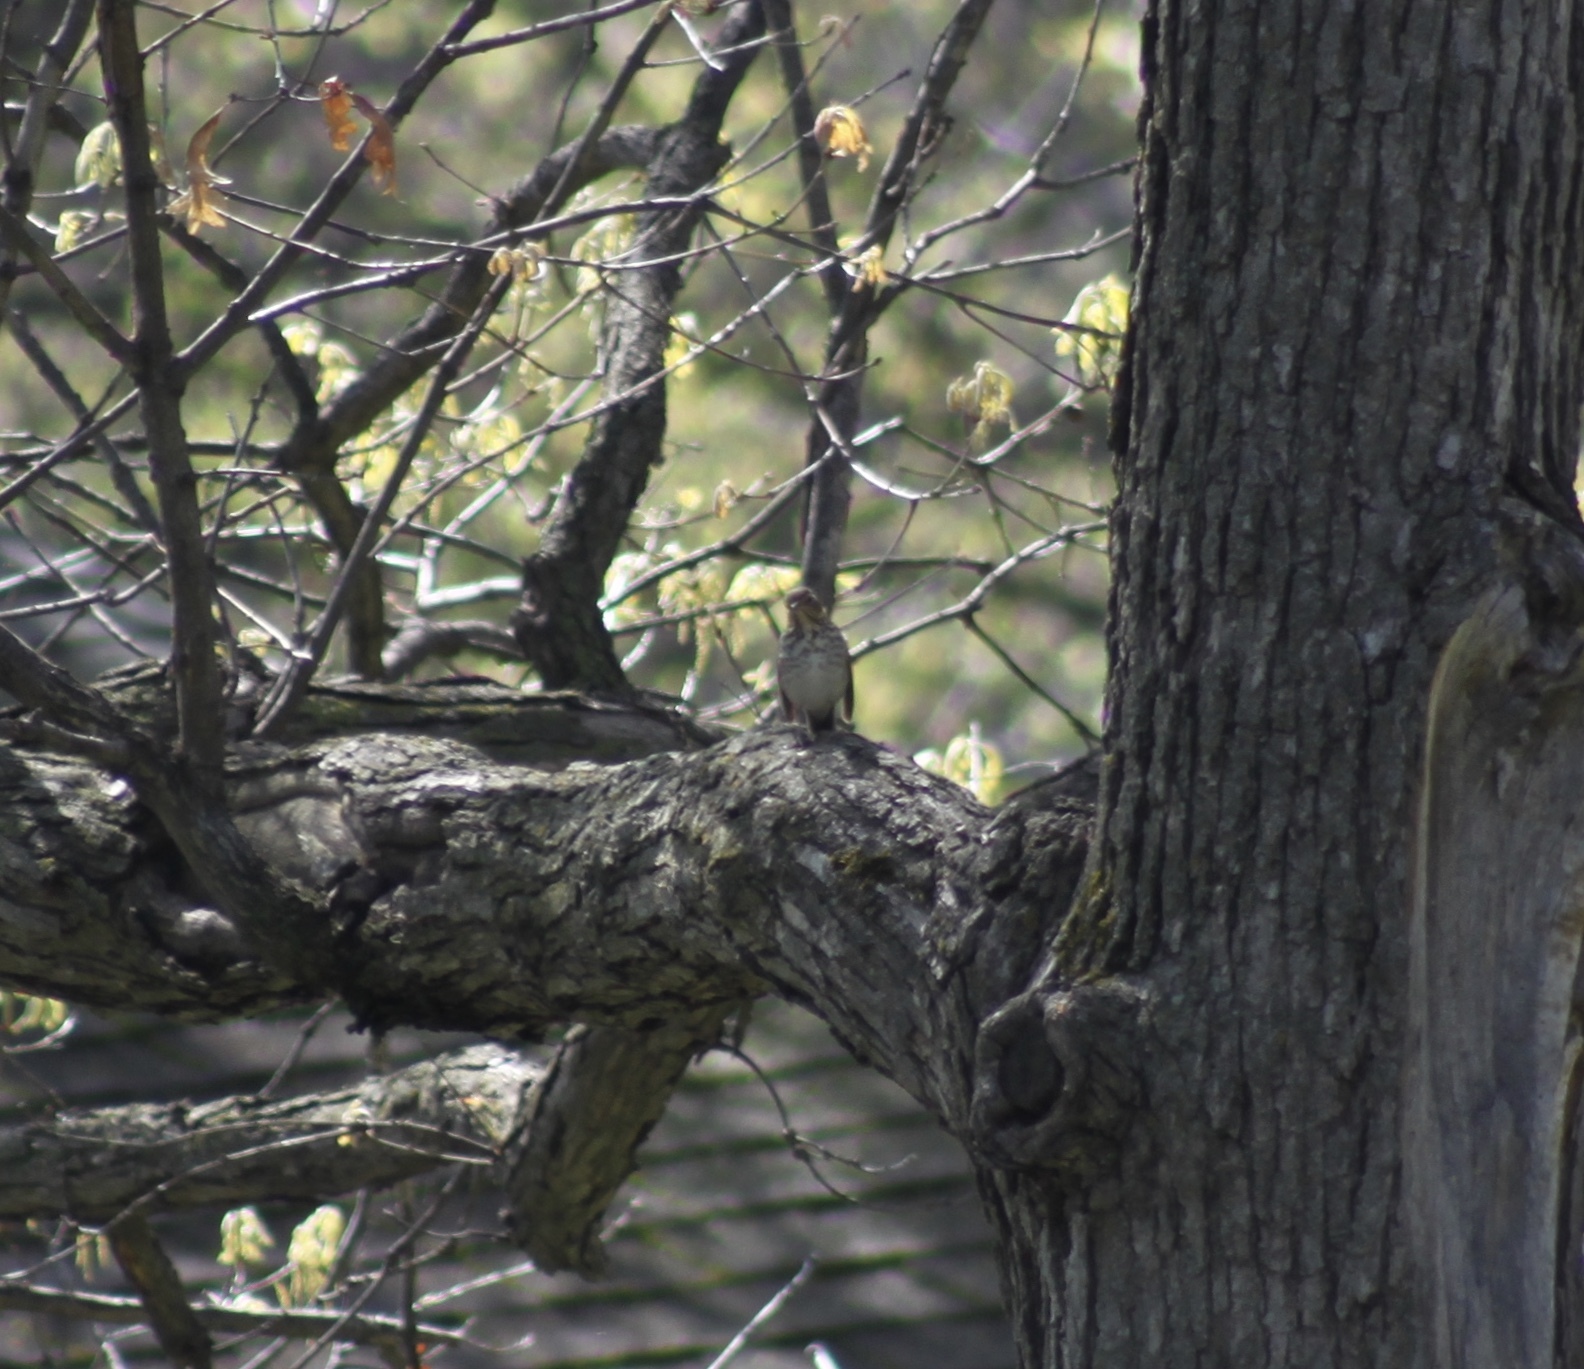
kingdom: Animalia
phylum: Chordata
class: Aves
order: Passeriformes
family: Turdidae
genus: Catharus
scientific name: Catharus
